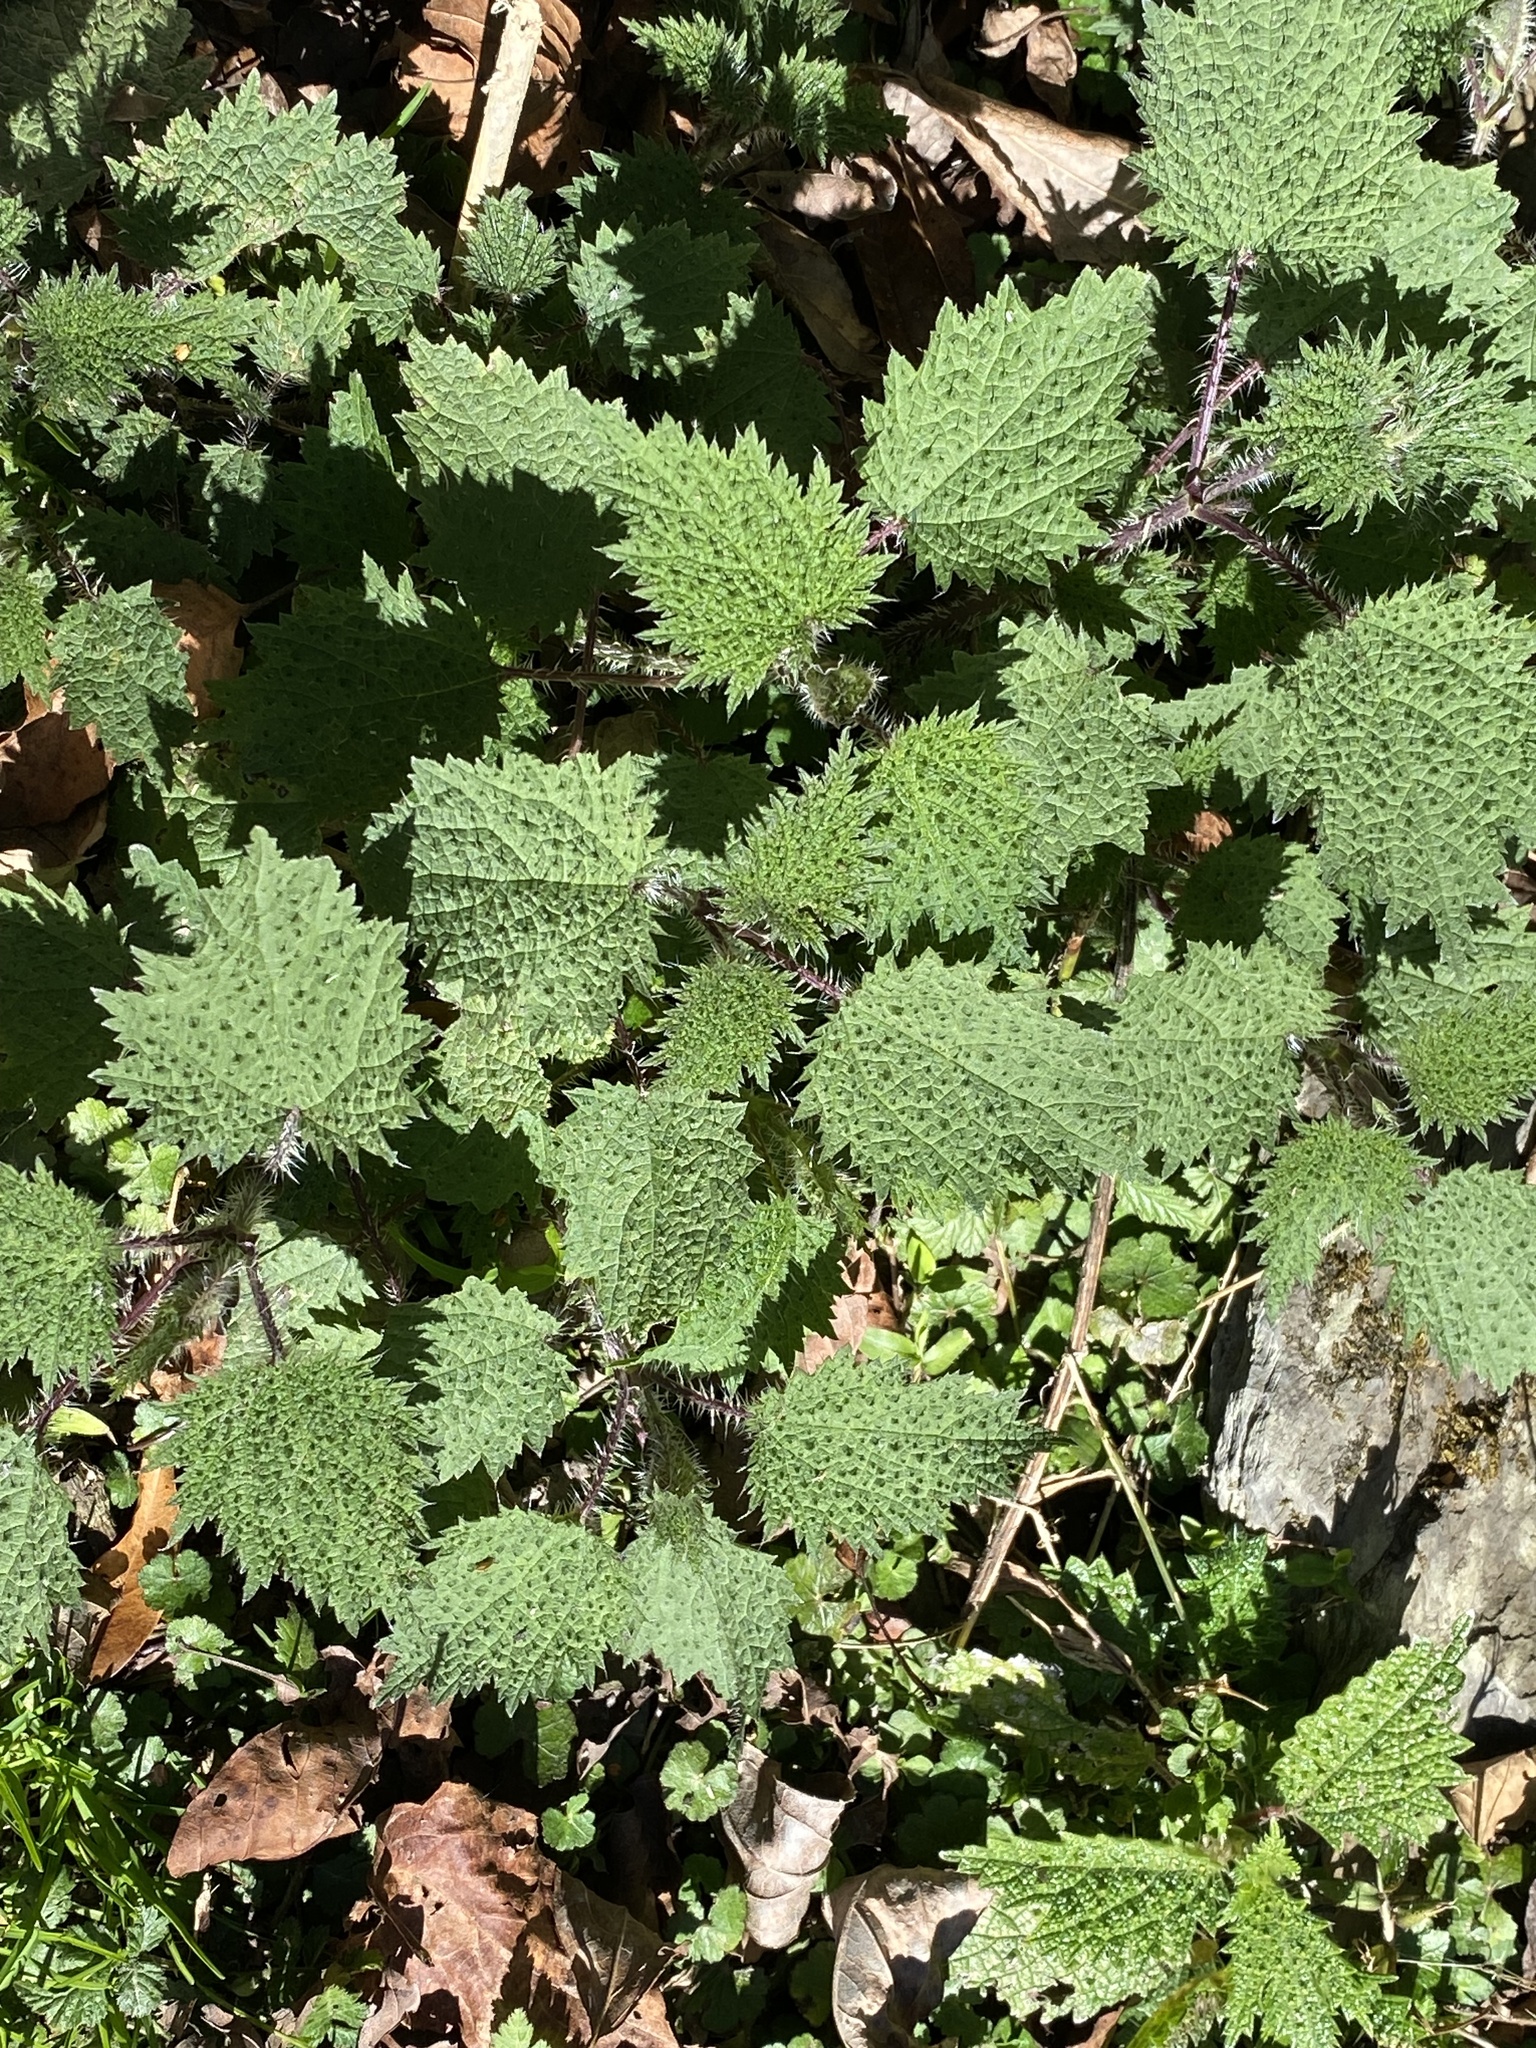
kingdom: Plantae
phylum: Tracheophyta
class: Magnoliopsida
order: Rosales
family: Urticaceae
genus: Urtica
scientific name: Urtica thunbergiana
